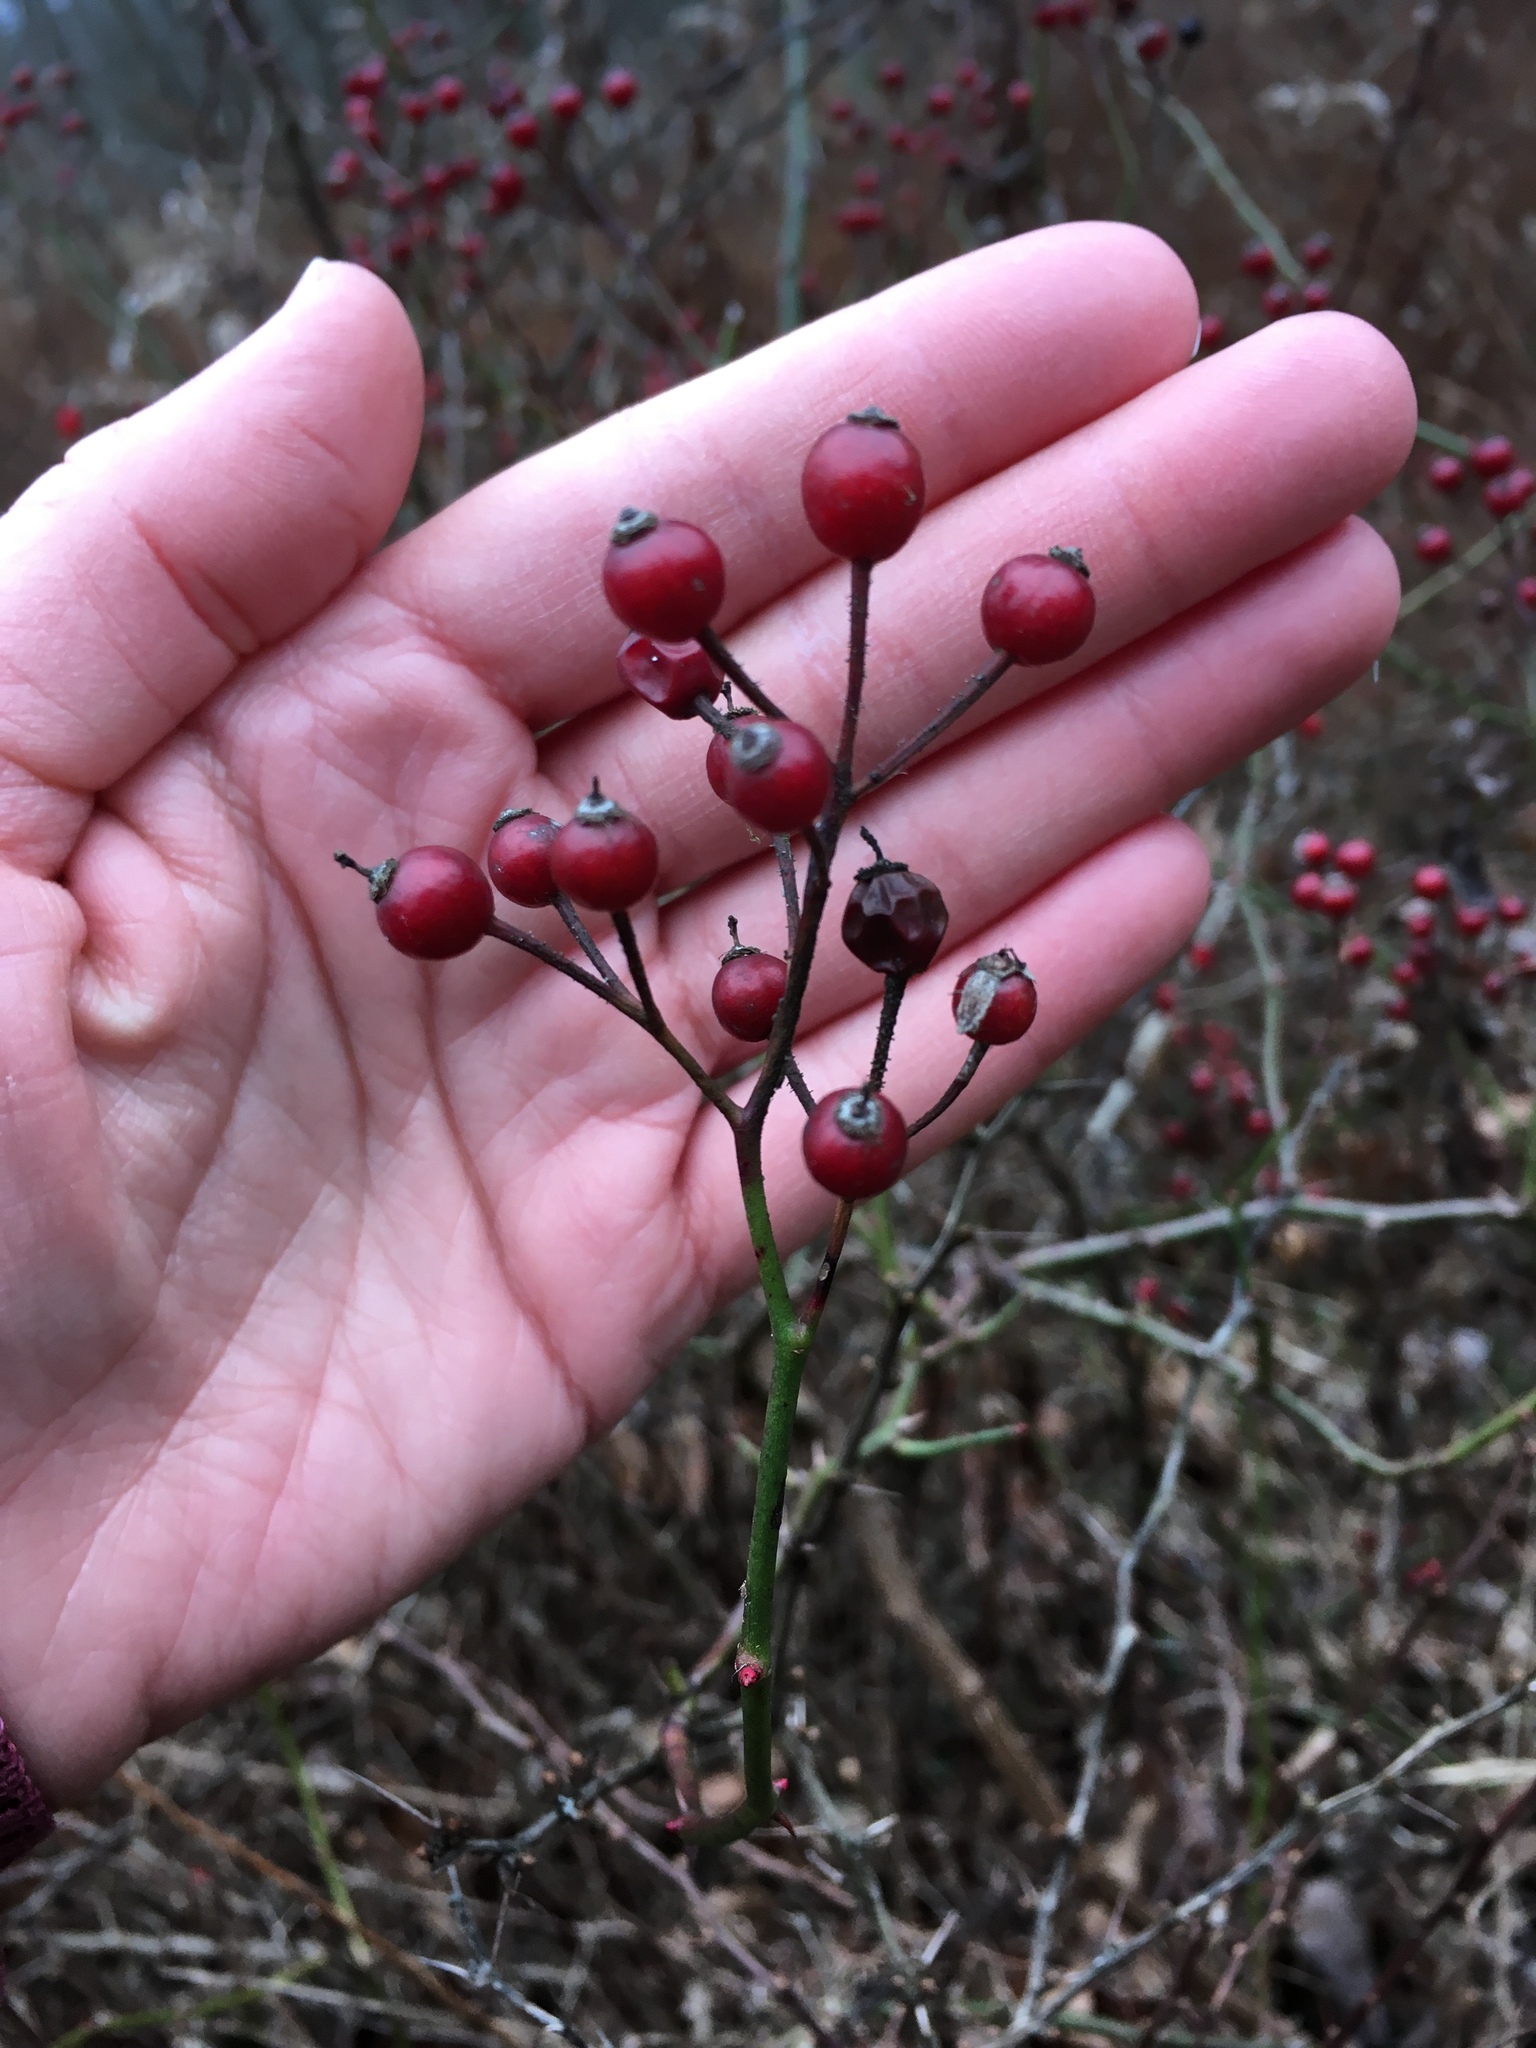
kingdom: Plantae
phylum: Tracheophyta
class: Magnoliopsida
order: Rosales
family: Rosaceae
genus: Rosa
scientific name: Rosa multiflora
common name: Multiflora rose
